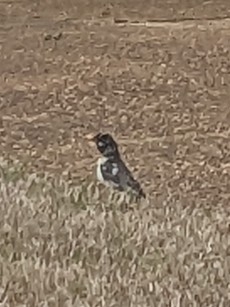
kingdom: Animalia
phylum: Chordata
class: Aves
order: Passeriformes
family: Turdidae
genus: Turdus
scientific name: Turdus migratorius
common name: American robin
